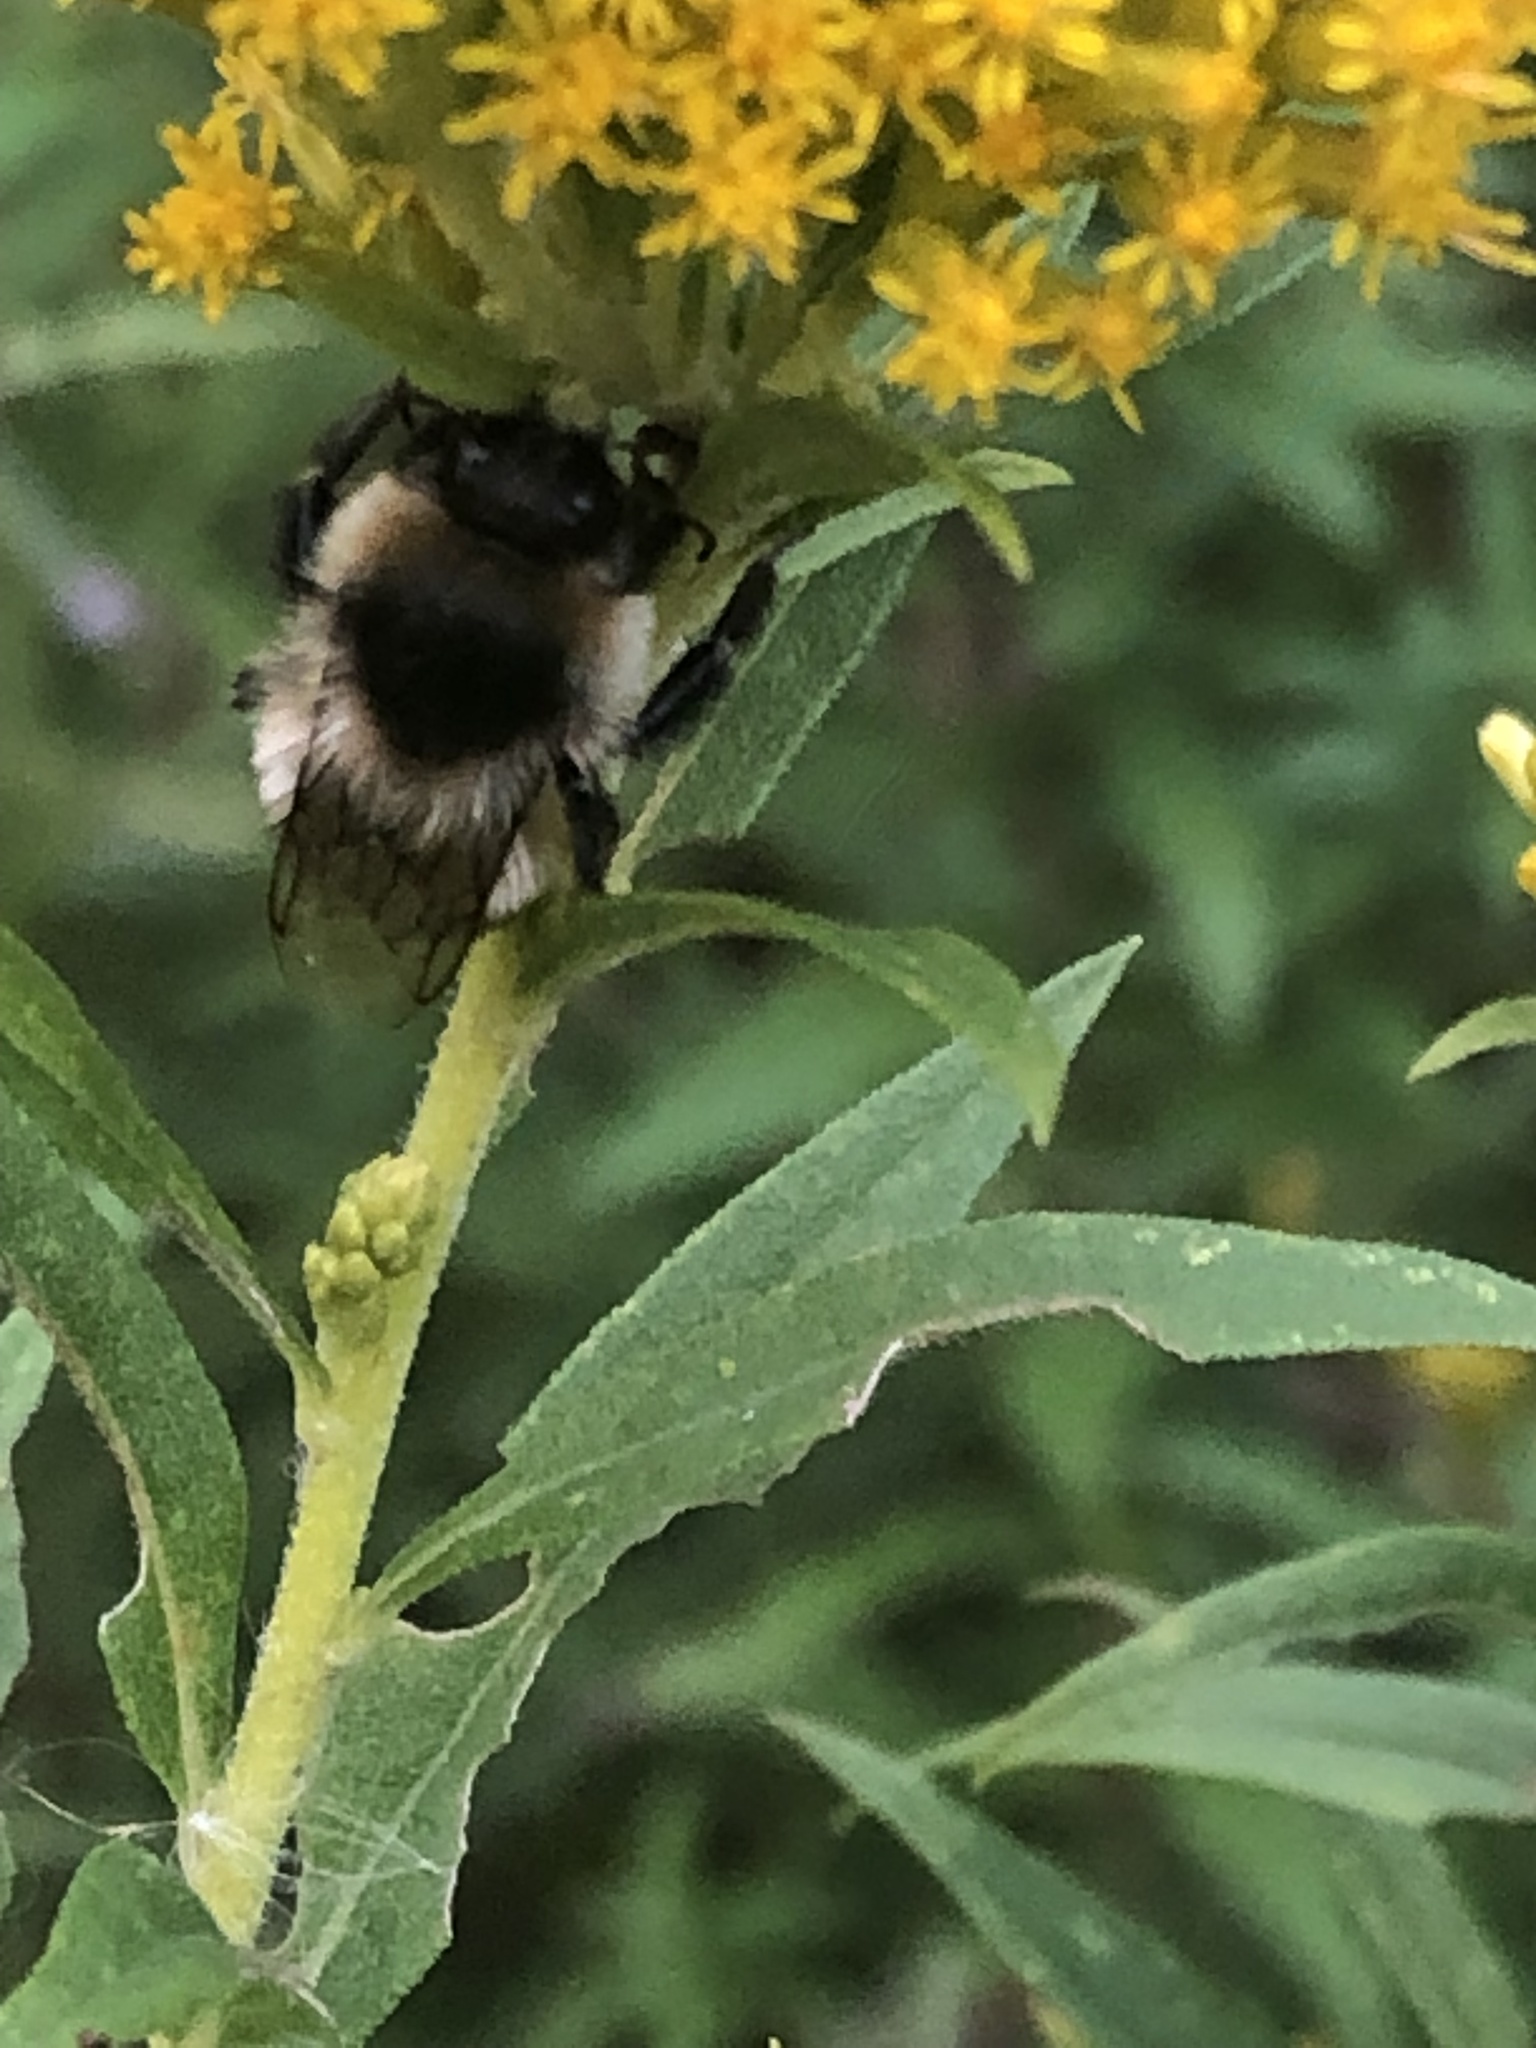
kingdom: Animalia
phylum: Arthropoda
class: Insecta
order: Hymenoptera
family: Apidae
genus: Bombus
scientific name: Bombus impatiens
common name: Common eastern bumble bee
